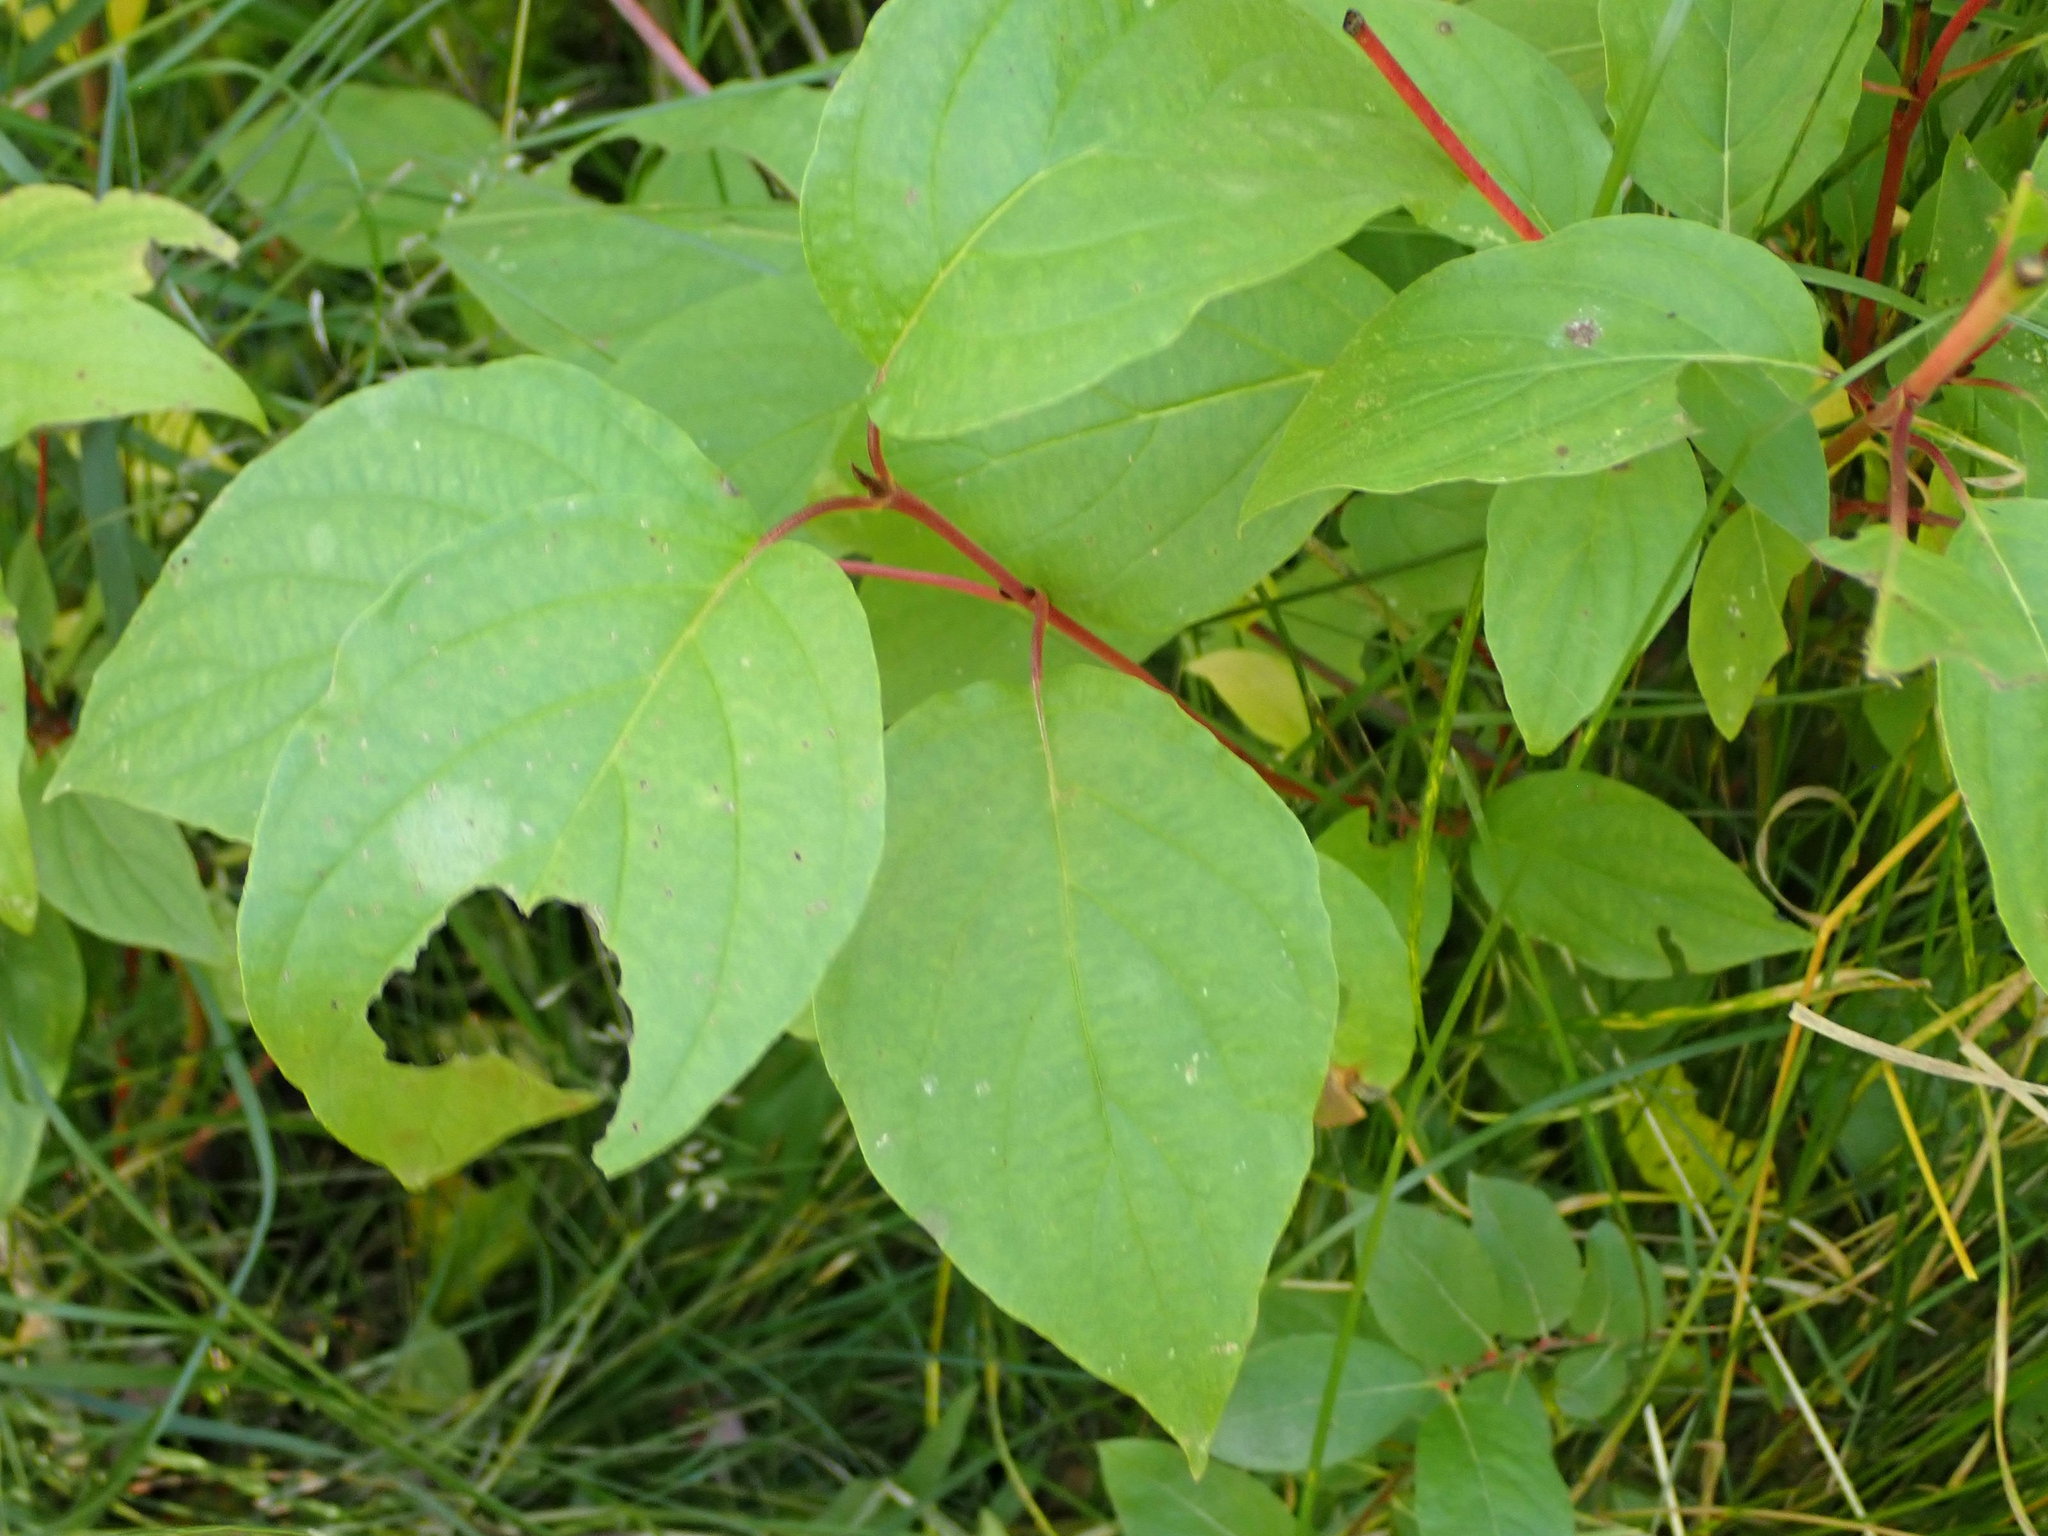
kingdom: Plantae
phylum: Tracheophyta
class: Magnoliopsida
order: Cornales
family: Cornaceae
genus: Cornus
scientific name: Cornus sericea
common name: Red-osier dogwood
